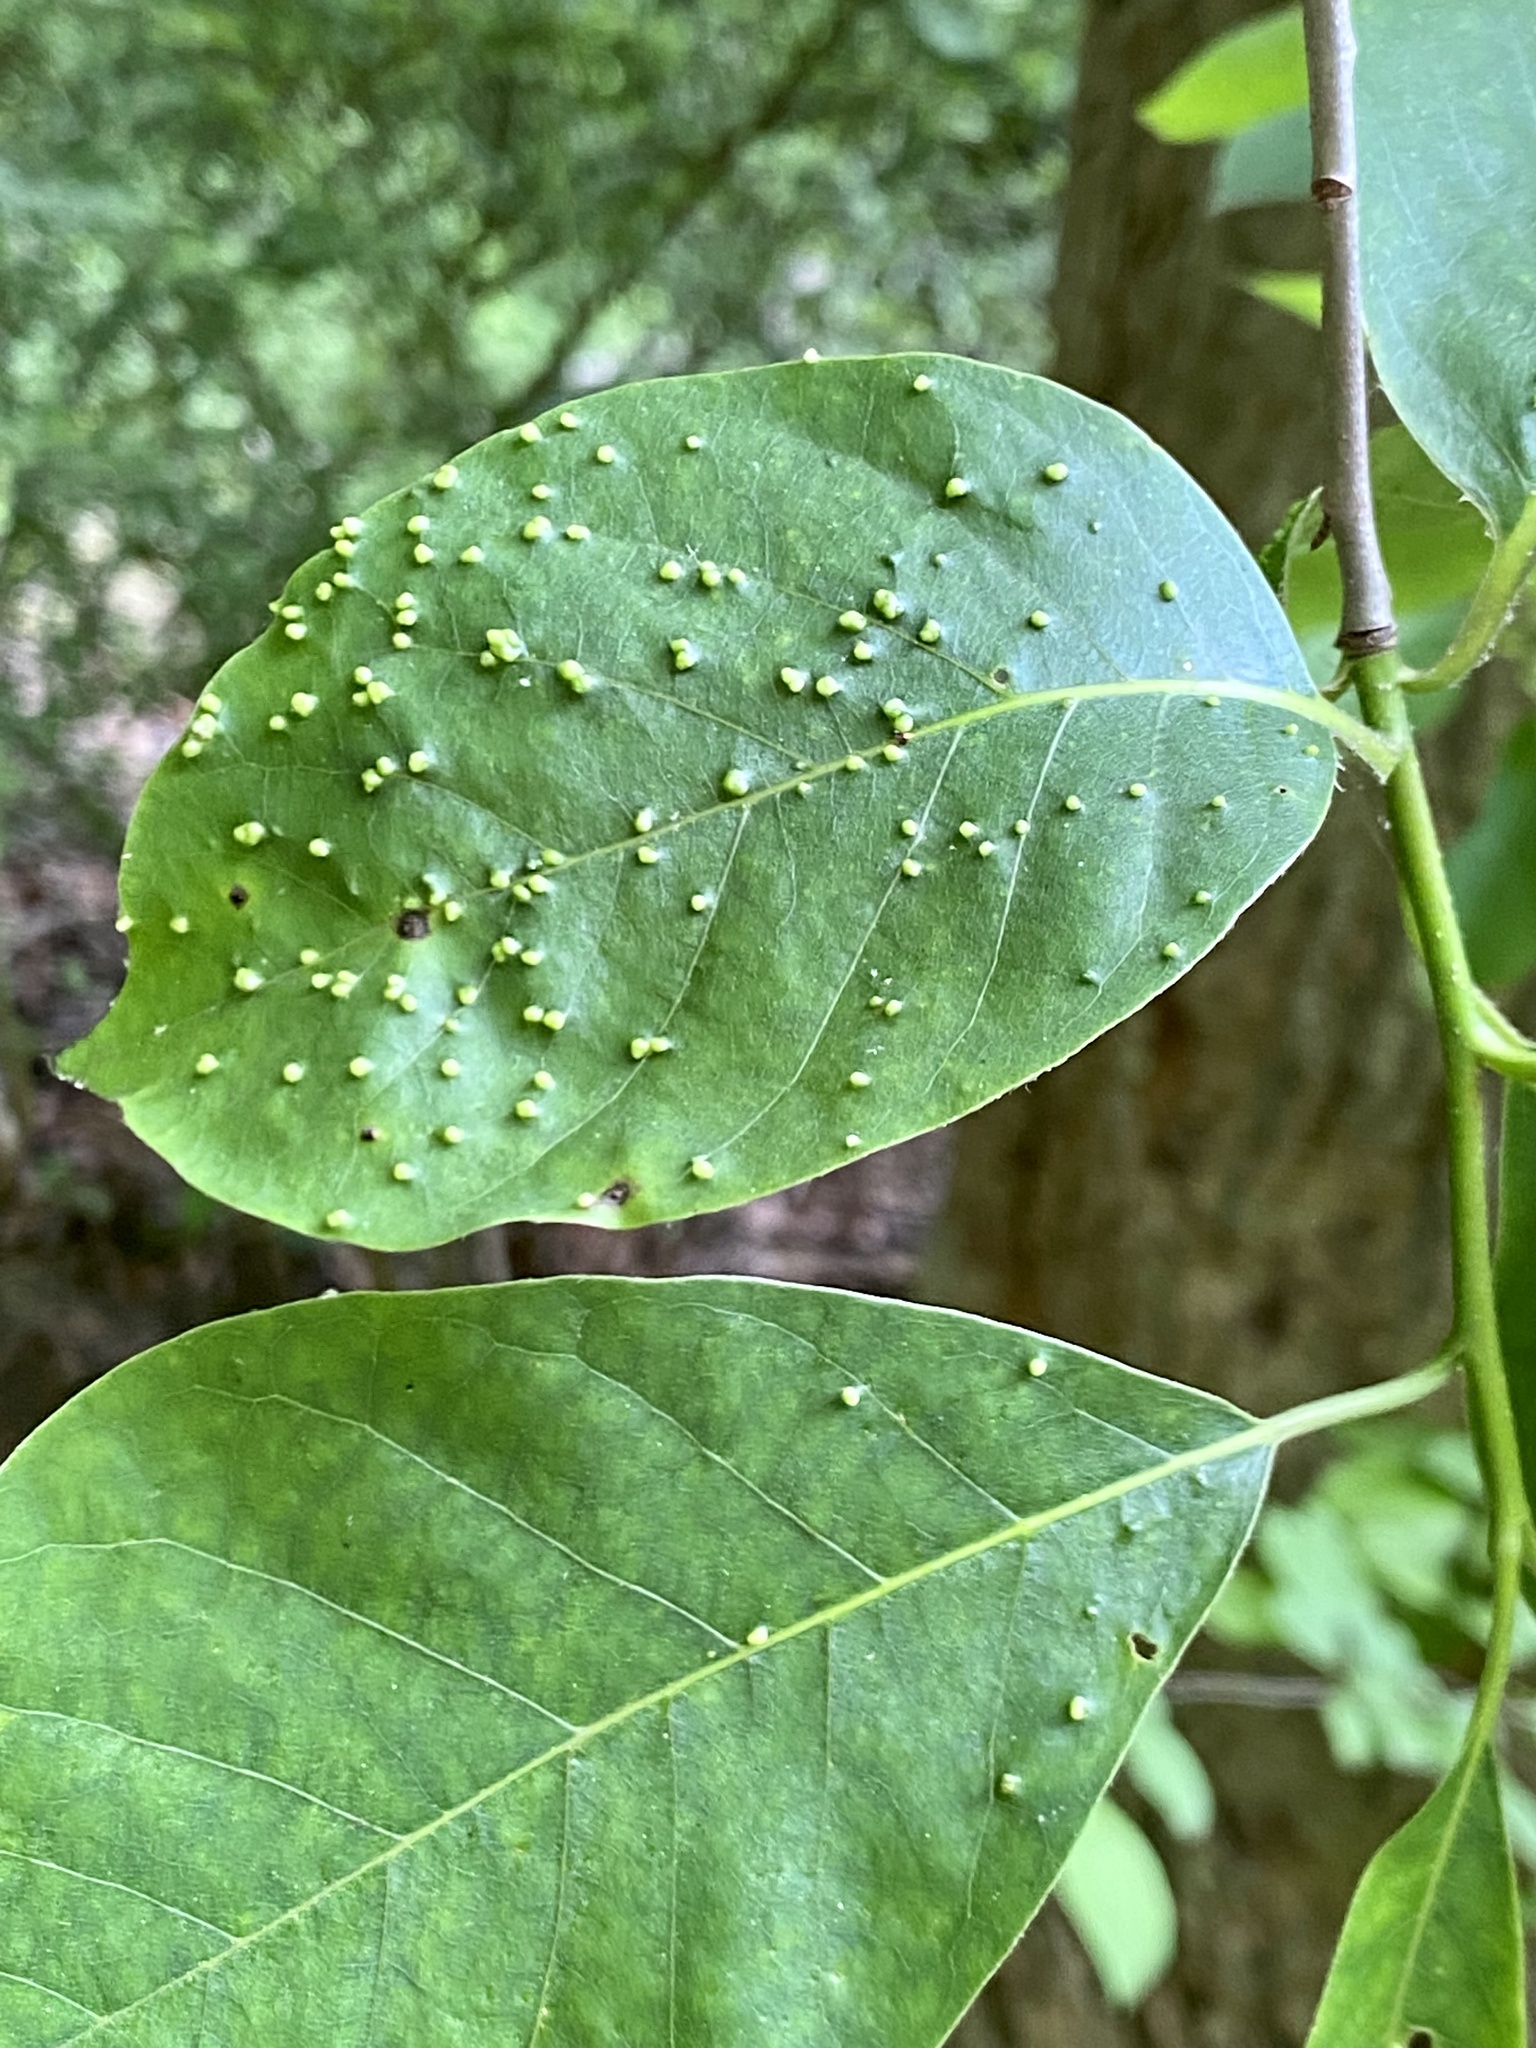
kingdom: Animalia
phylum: Arthropoda
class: Arachnida
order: Trombidiformes
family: Eriophyidae
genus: Aceria
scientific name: Aceria
